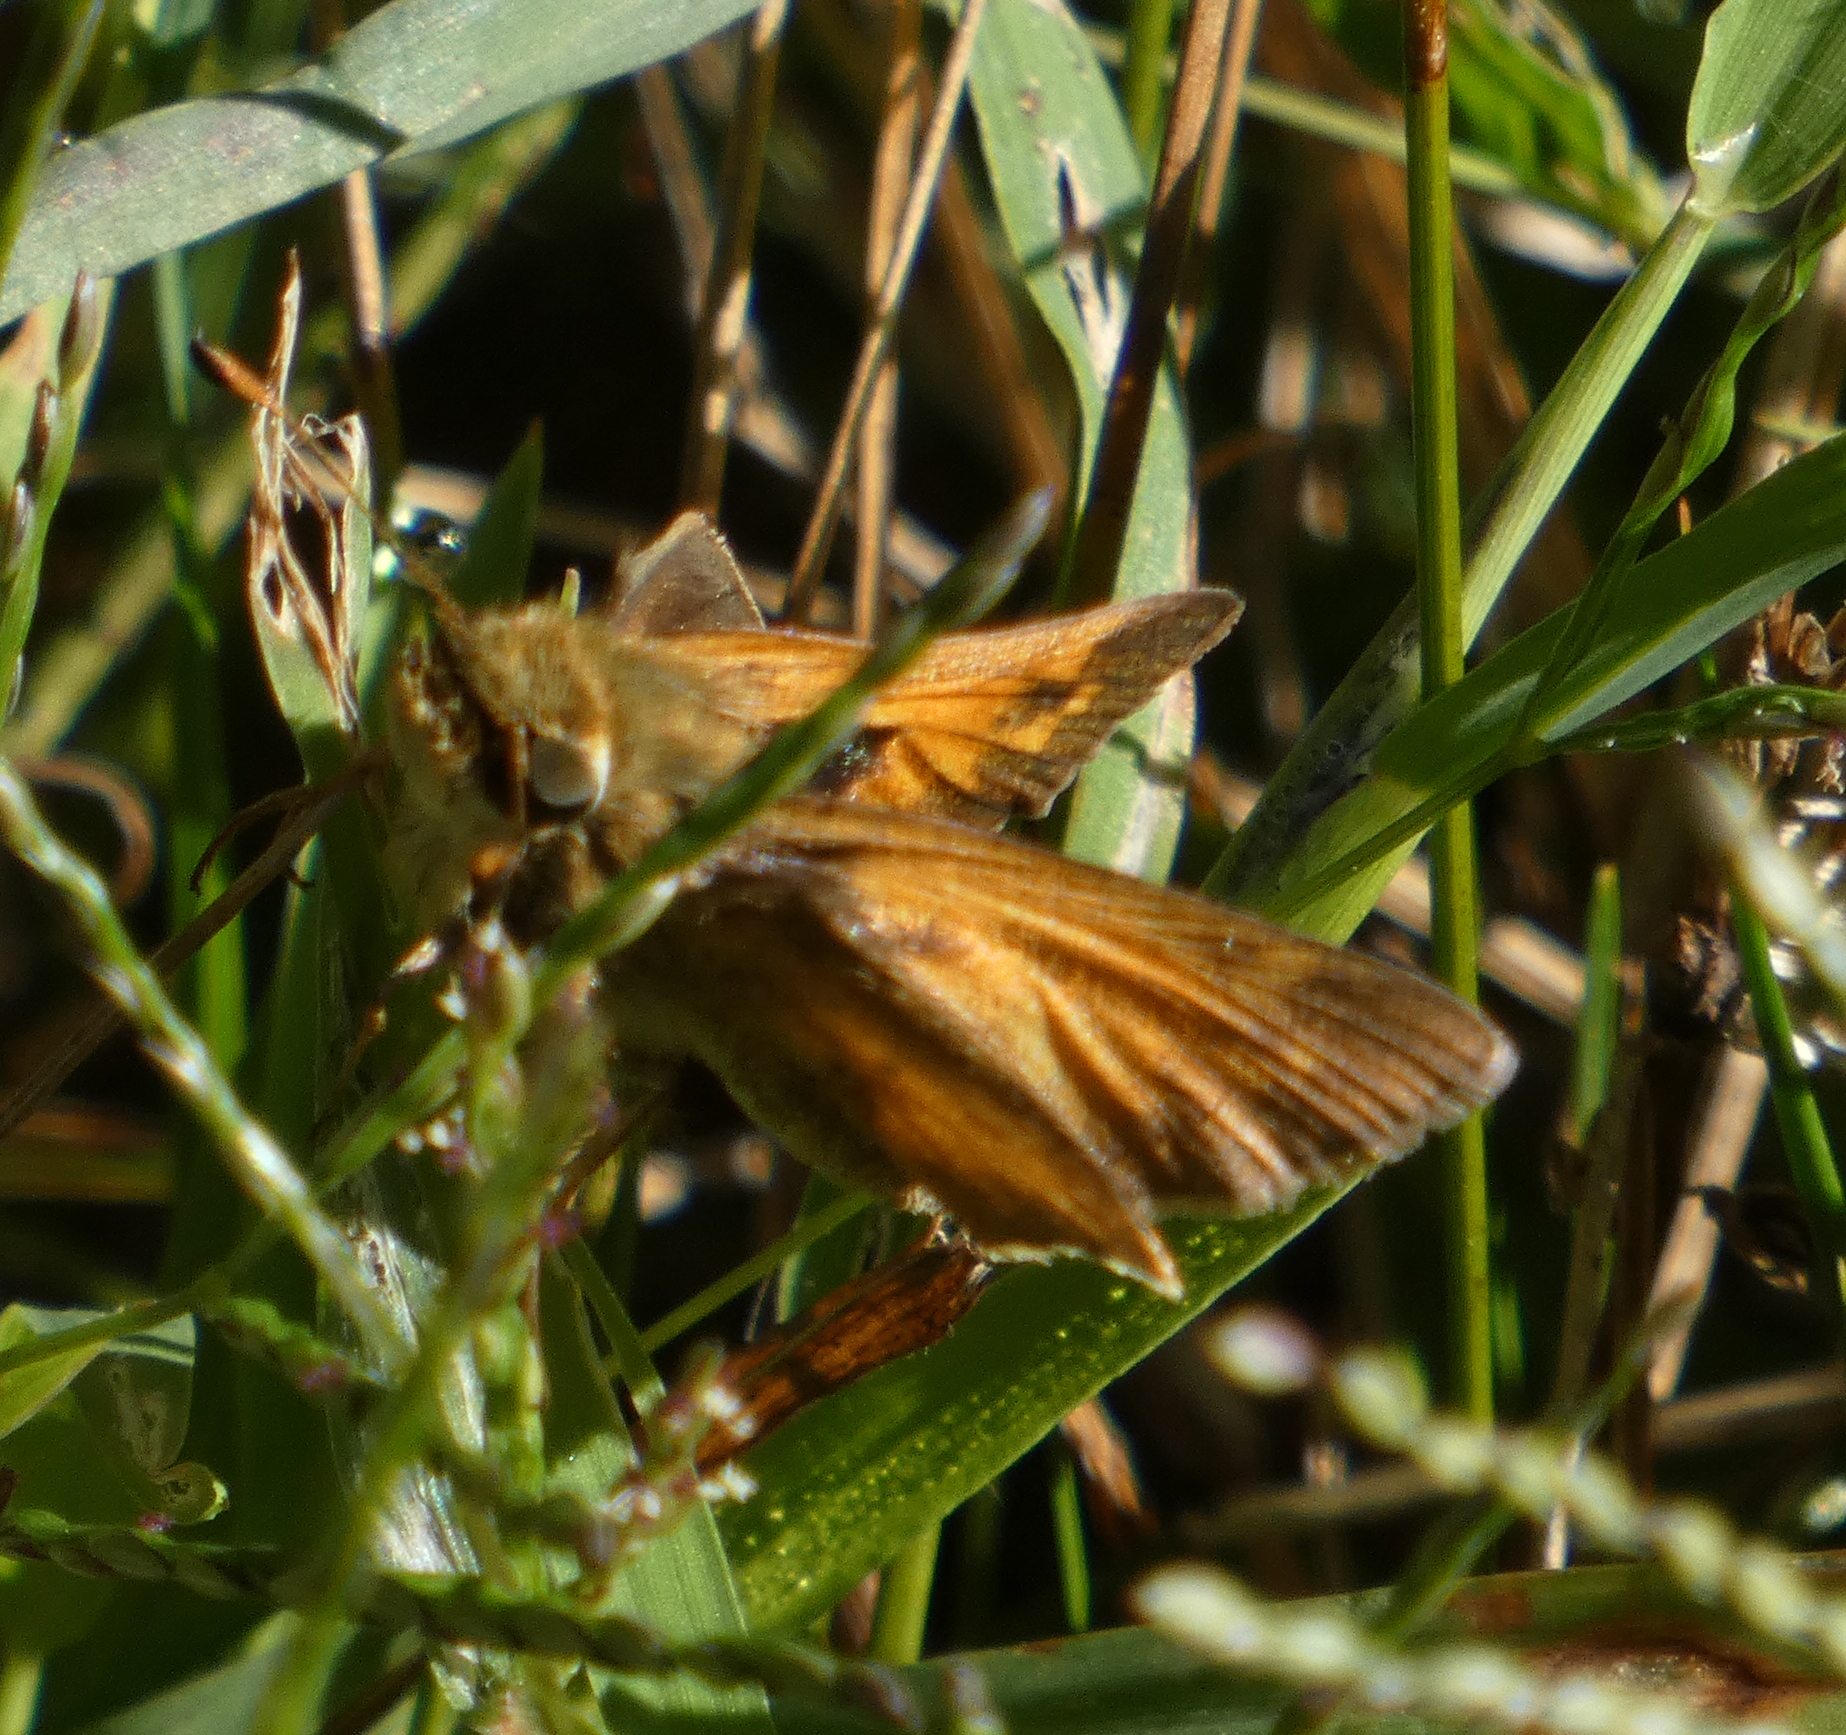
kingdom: Animalia
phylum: Arthropoda
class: Insecta
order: Lepidoptera
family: Hesperiidae
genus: Atalopedes
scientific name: Atalopedes
